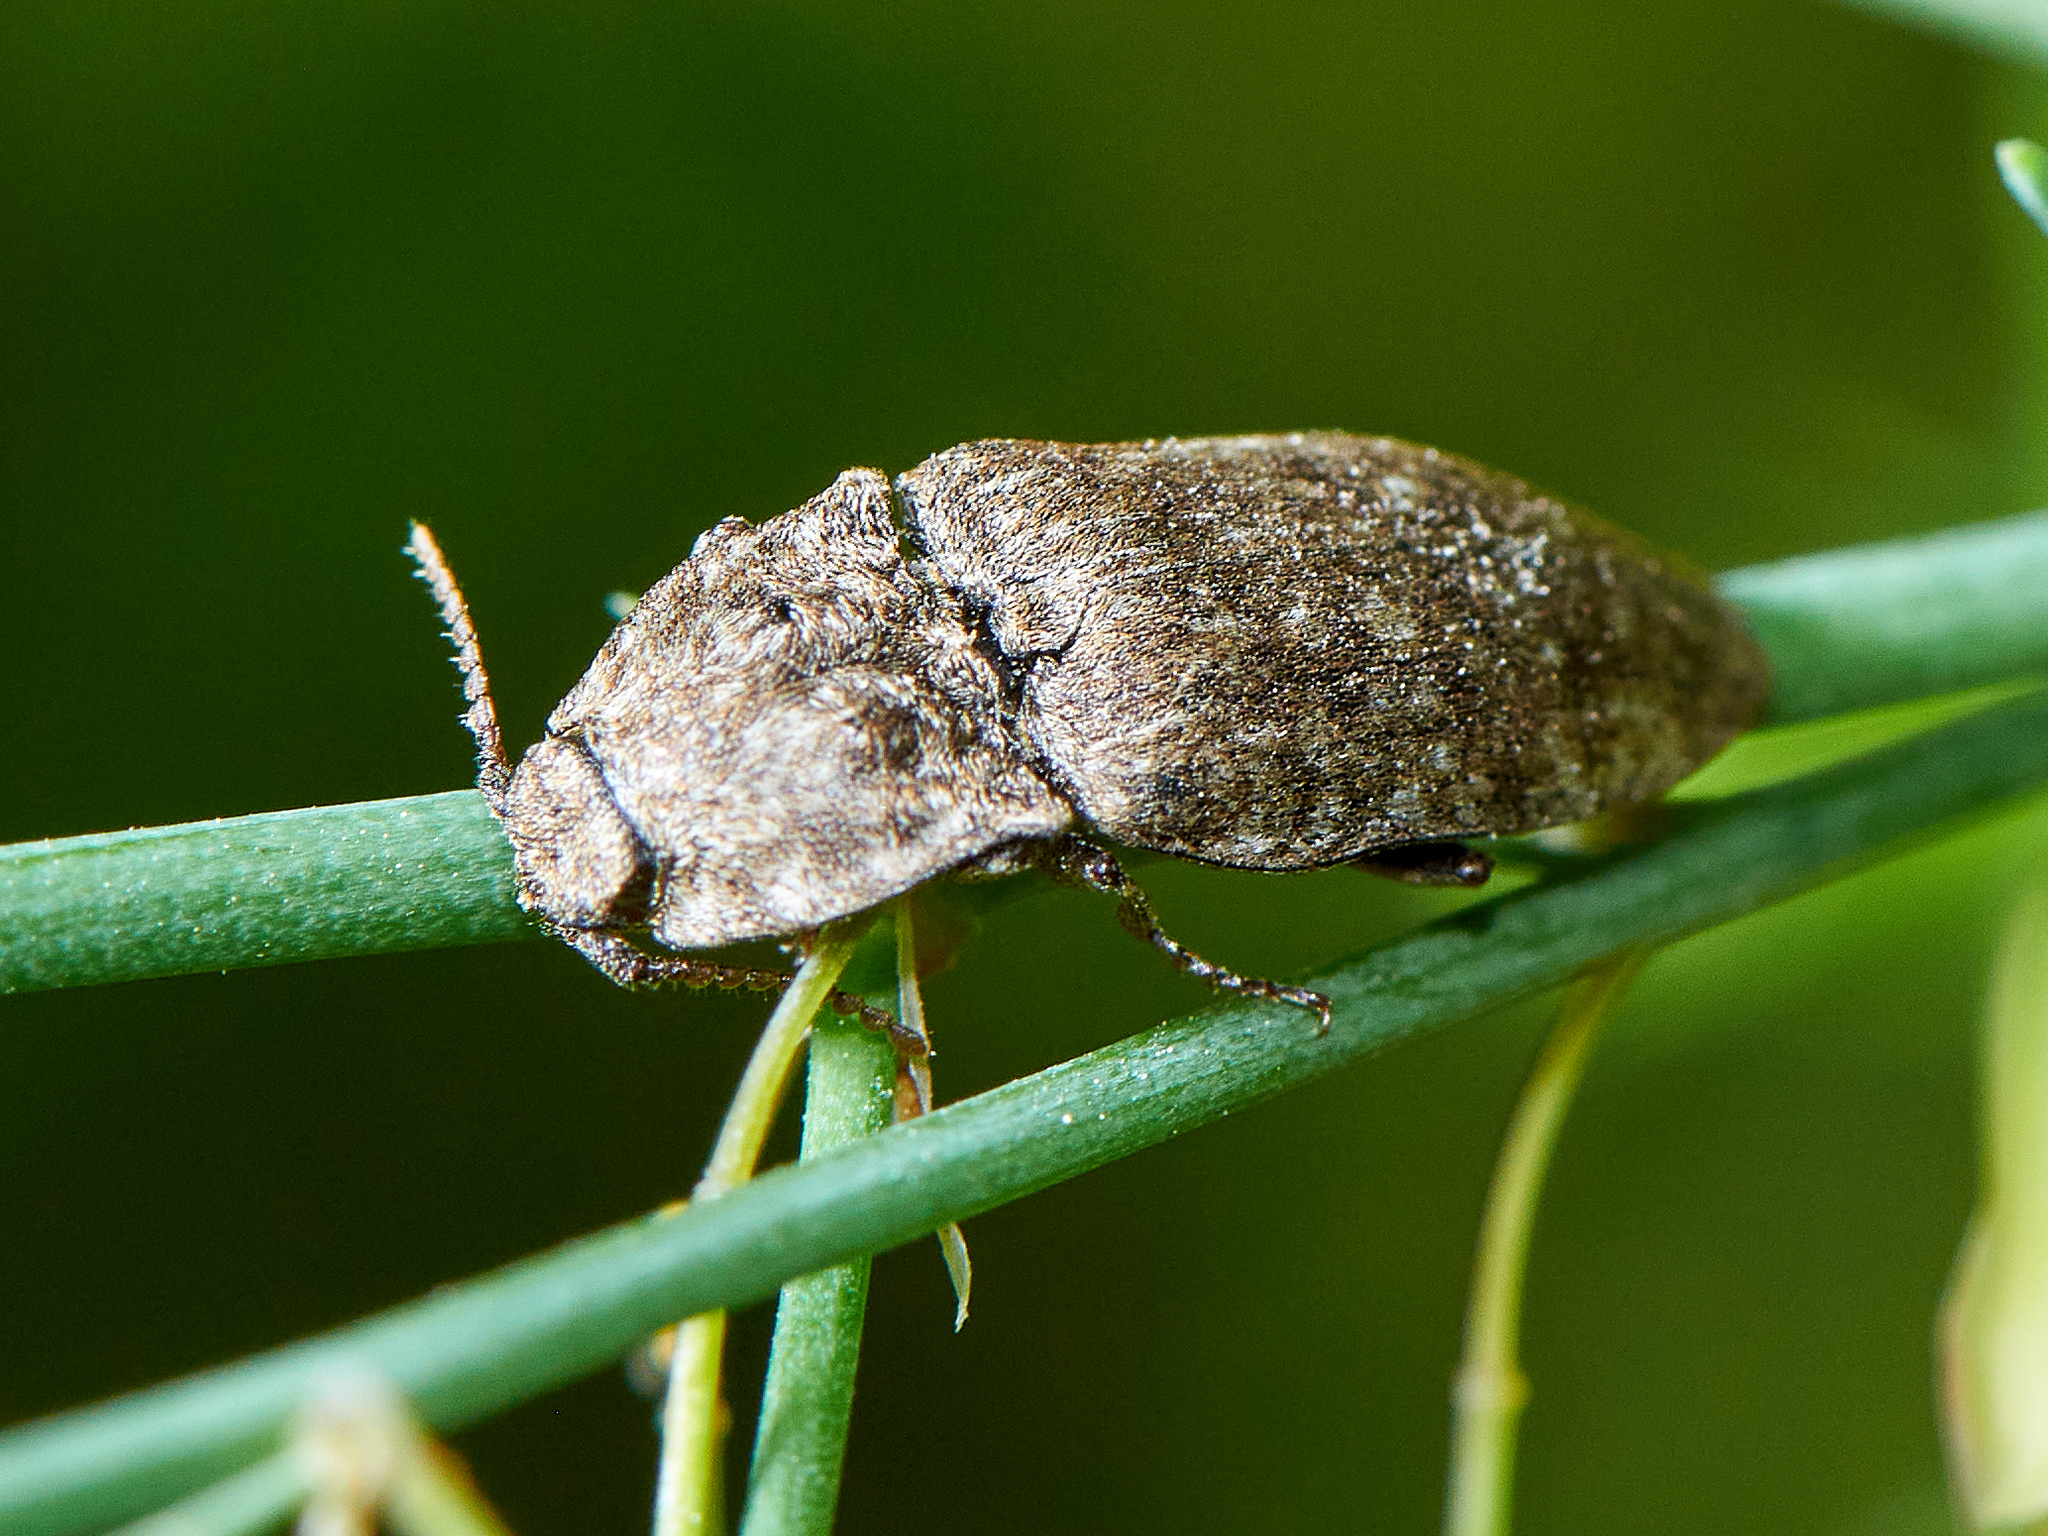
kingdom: Animalia
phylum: Arthropoda
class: Insecta
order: Coleoptera
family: Elateridae
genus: Agrypnus
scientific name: Agrypnus murinus
